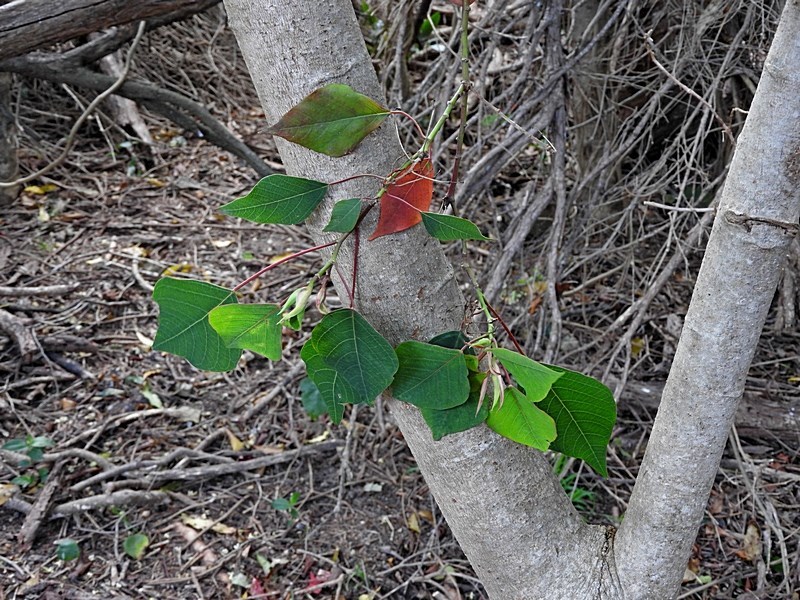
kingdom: Plantae
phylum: Tracheophyta
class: Magnoliopsida
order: Malpighiales
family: Euphorbiaceae
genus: Homalanthus
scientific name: Homalanthus populifolius
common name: Queensland poplar
